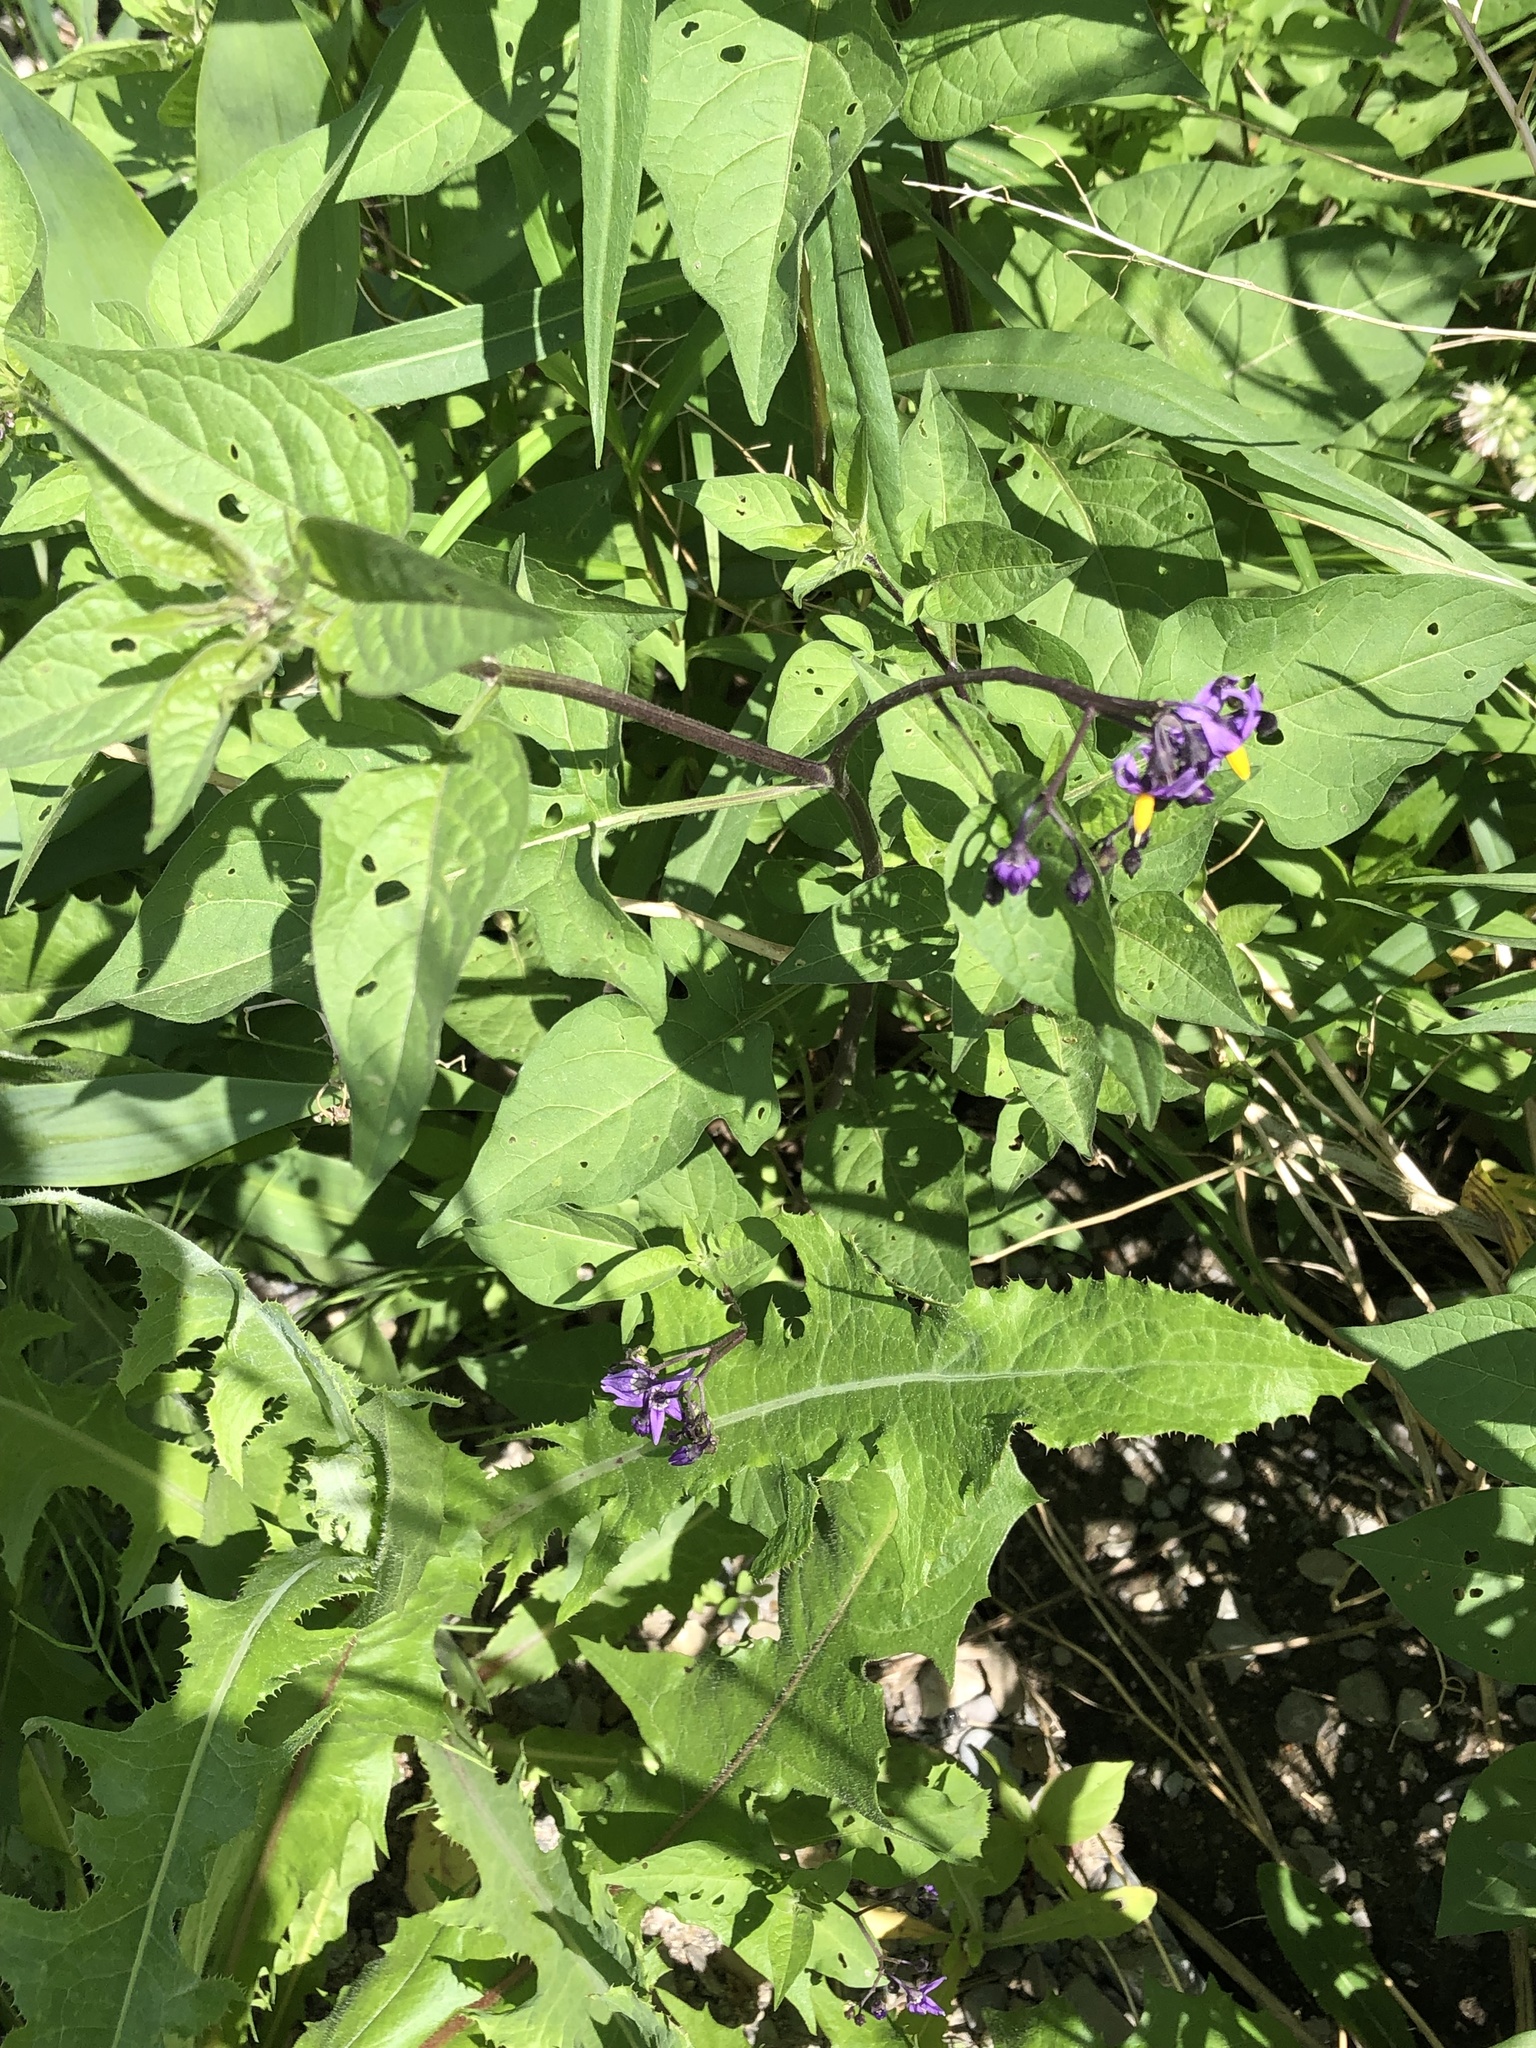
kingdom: Plantae
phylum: Tracheophyta
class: Magnoliopsida
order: Solanales
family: Solanaceae
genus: Solanum
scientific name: Solanum dulcamara
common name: Climbing nightshade
